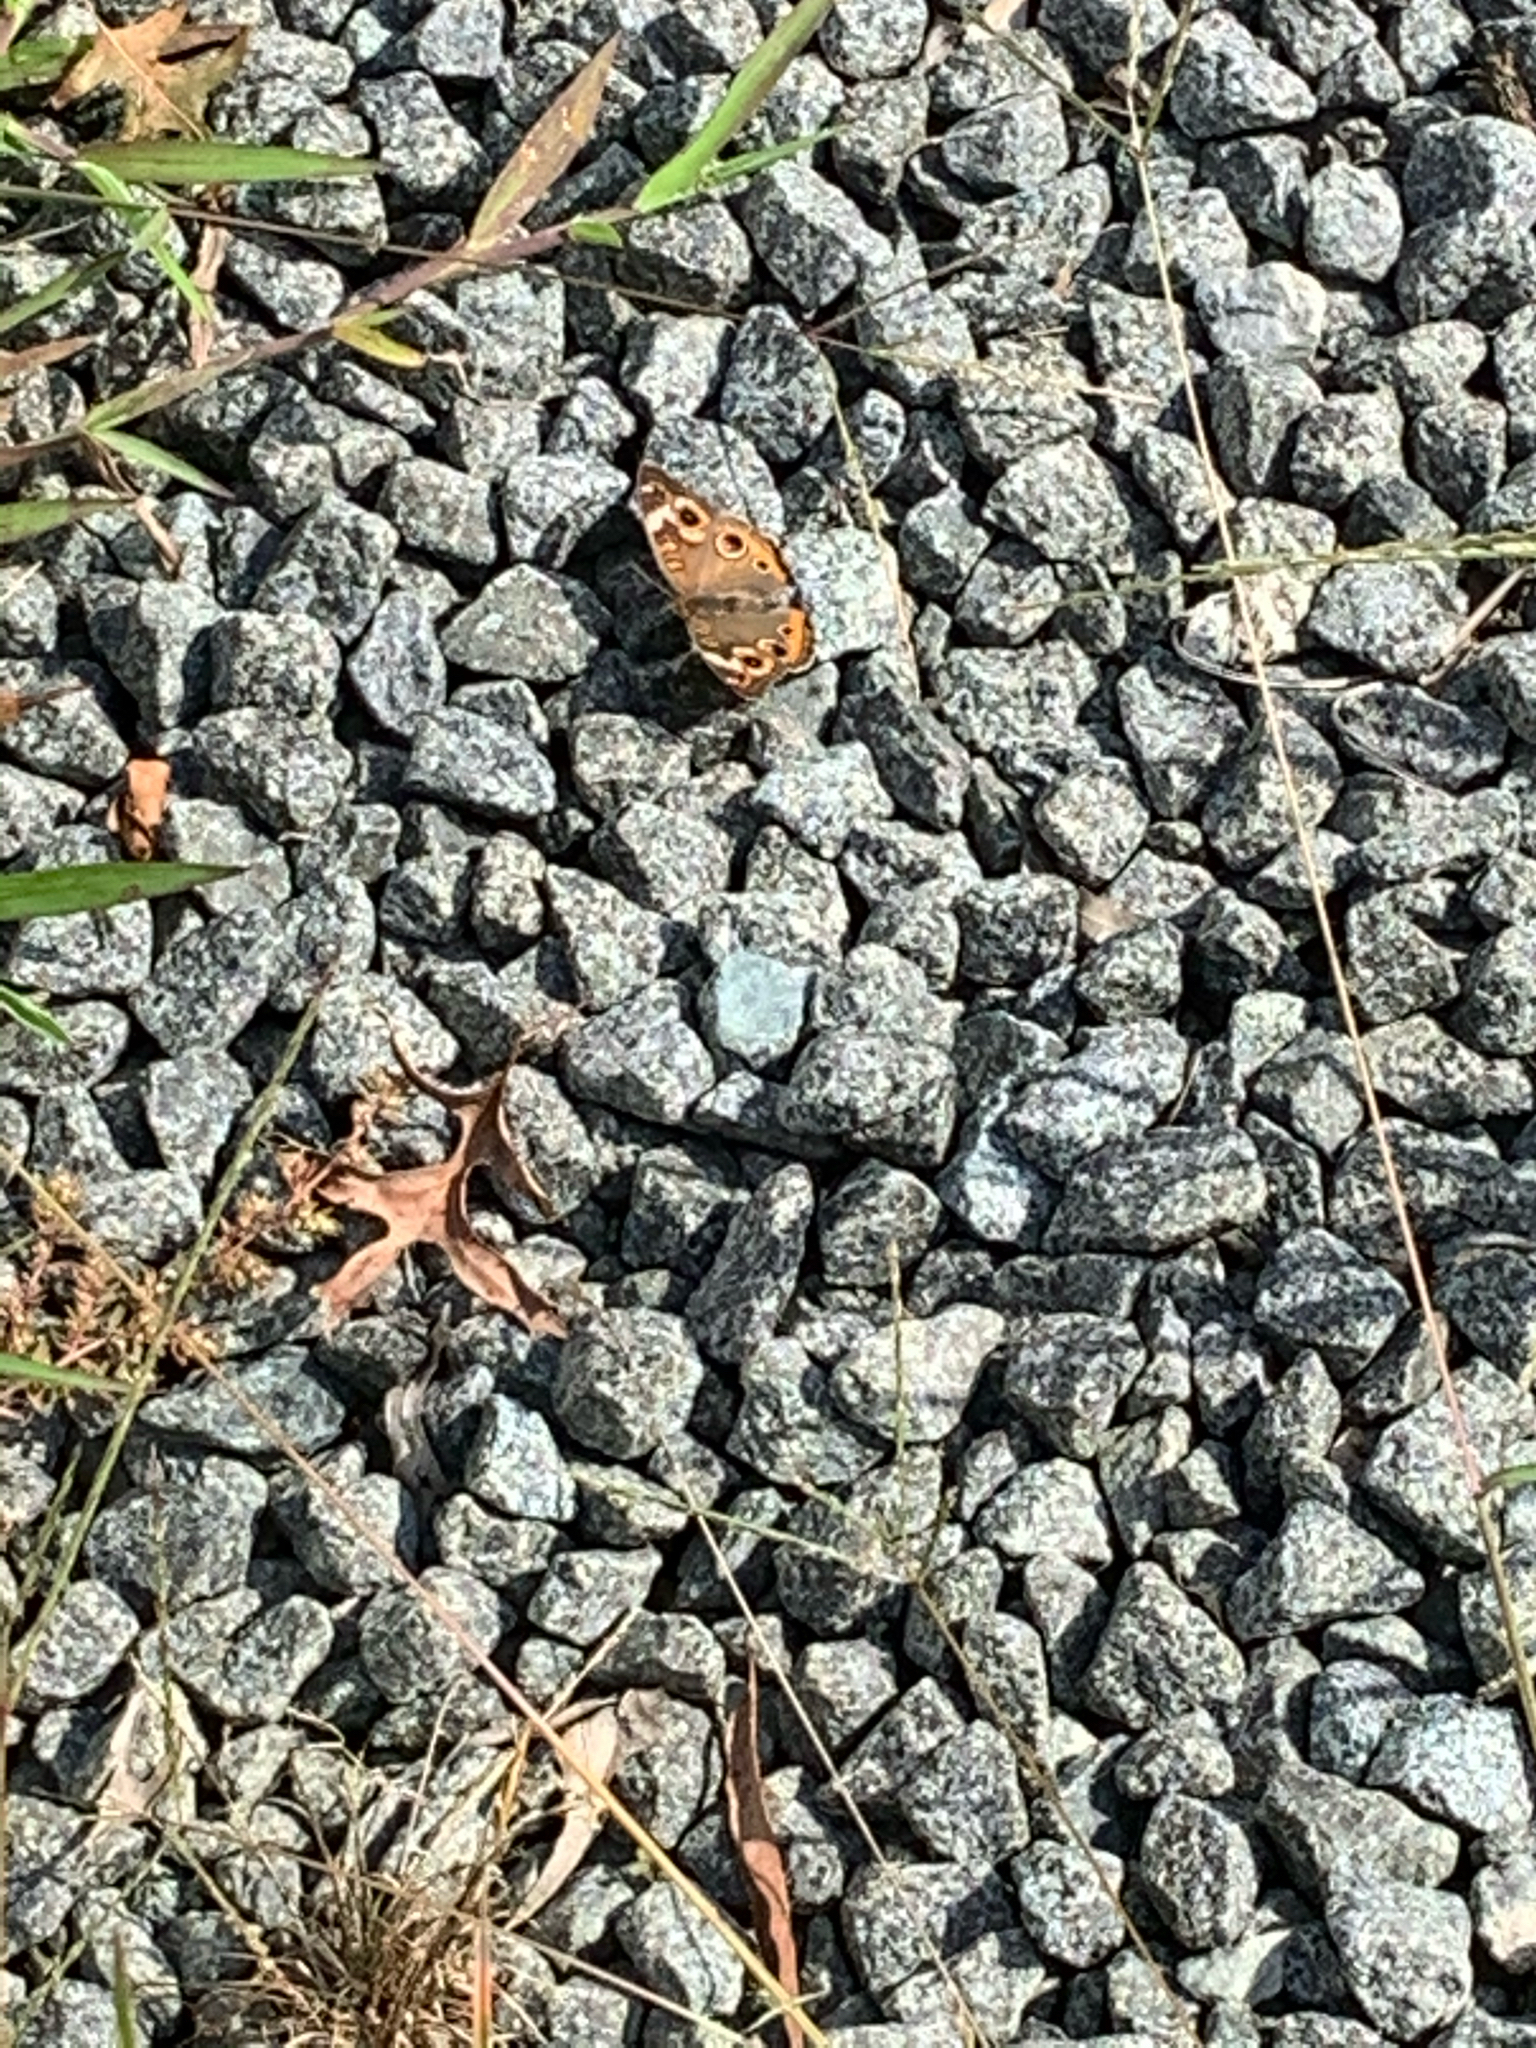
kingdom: Animalia
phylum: Arthropoda
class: Insecta
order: Lepidoptera
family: Nymphalidae
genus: Junonia
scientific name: Junonia coenia
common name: Common buckeye
